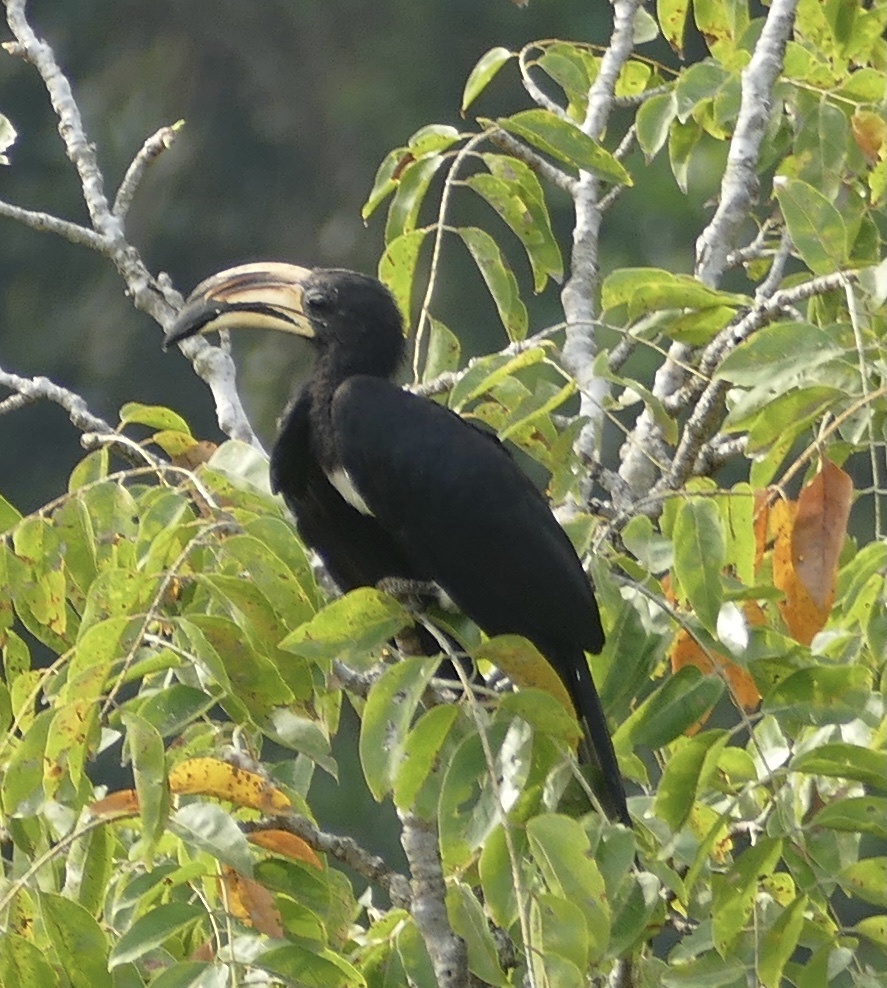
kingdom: Animalia
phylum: Chordata
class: Aves
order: Bucerotiformes
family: Bucerotidae
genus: Lophoceros
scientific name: Lophoceros fasciatus
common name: African pied hornbill
